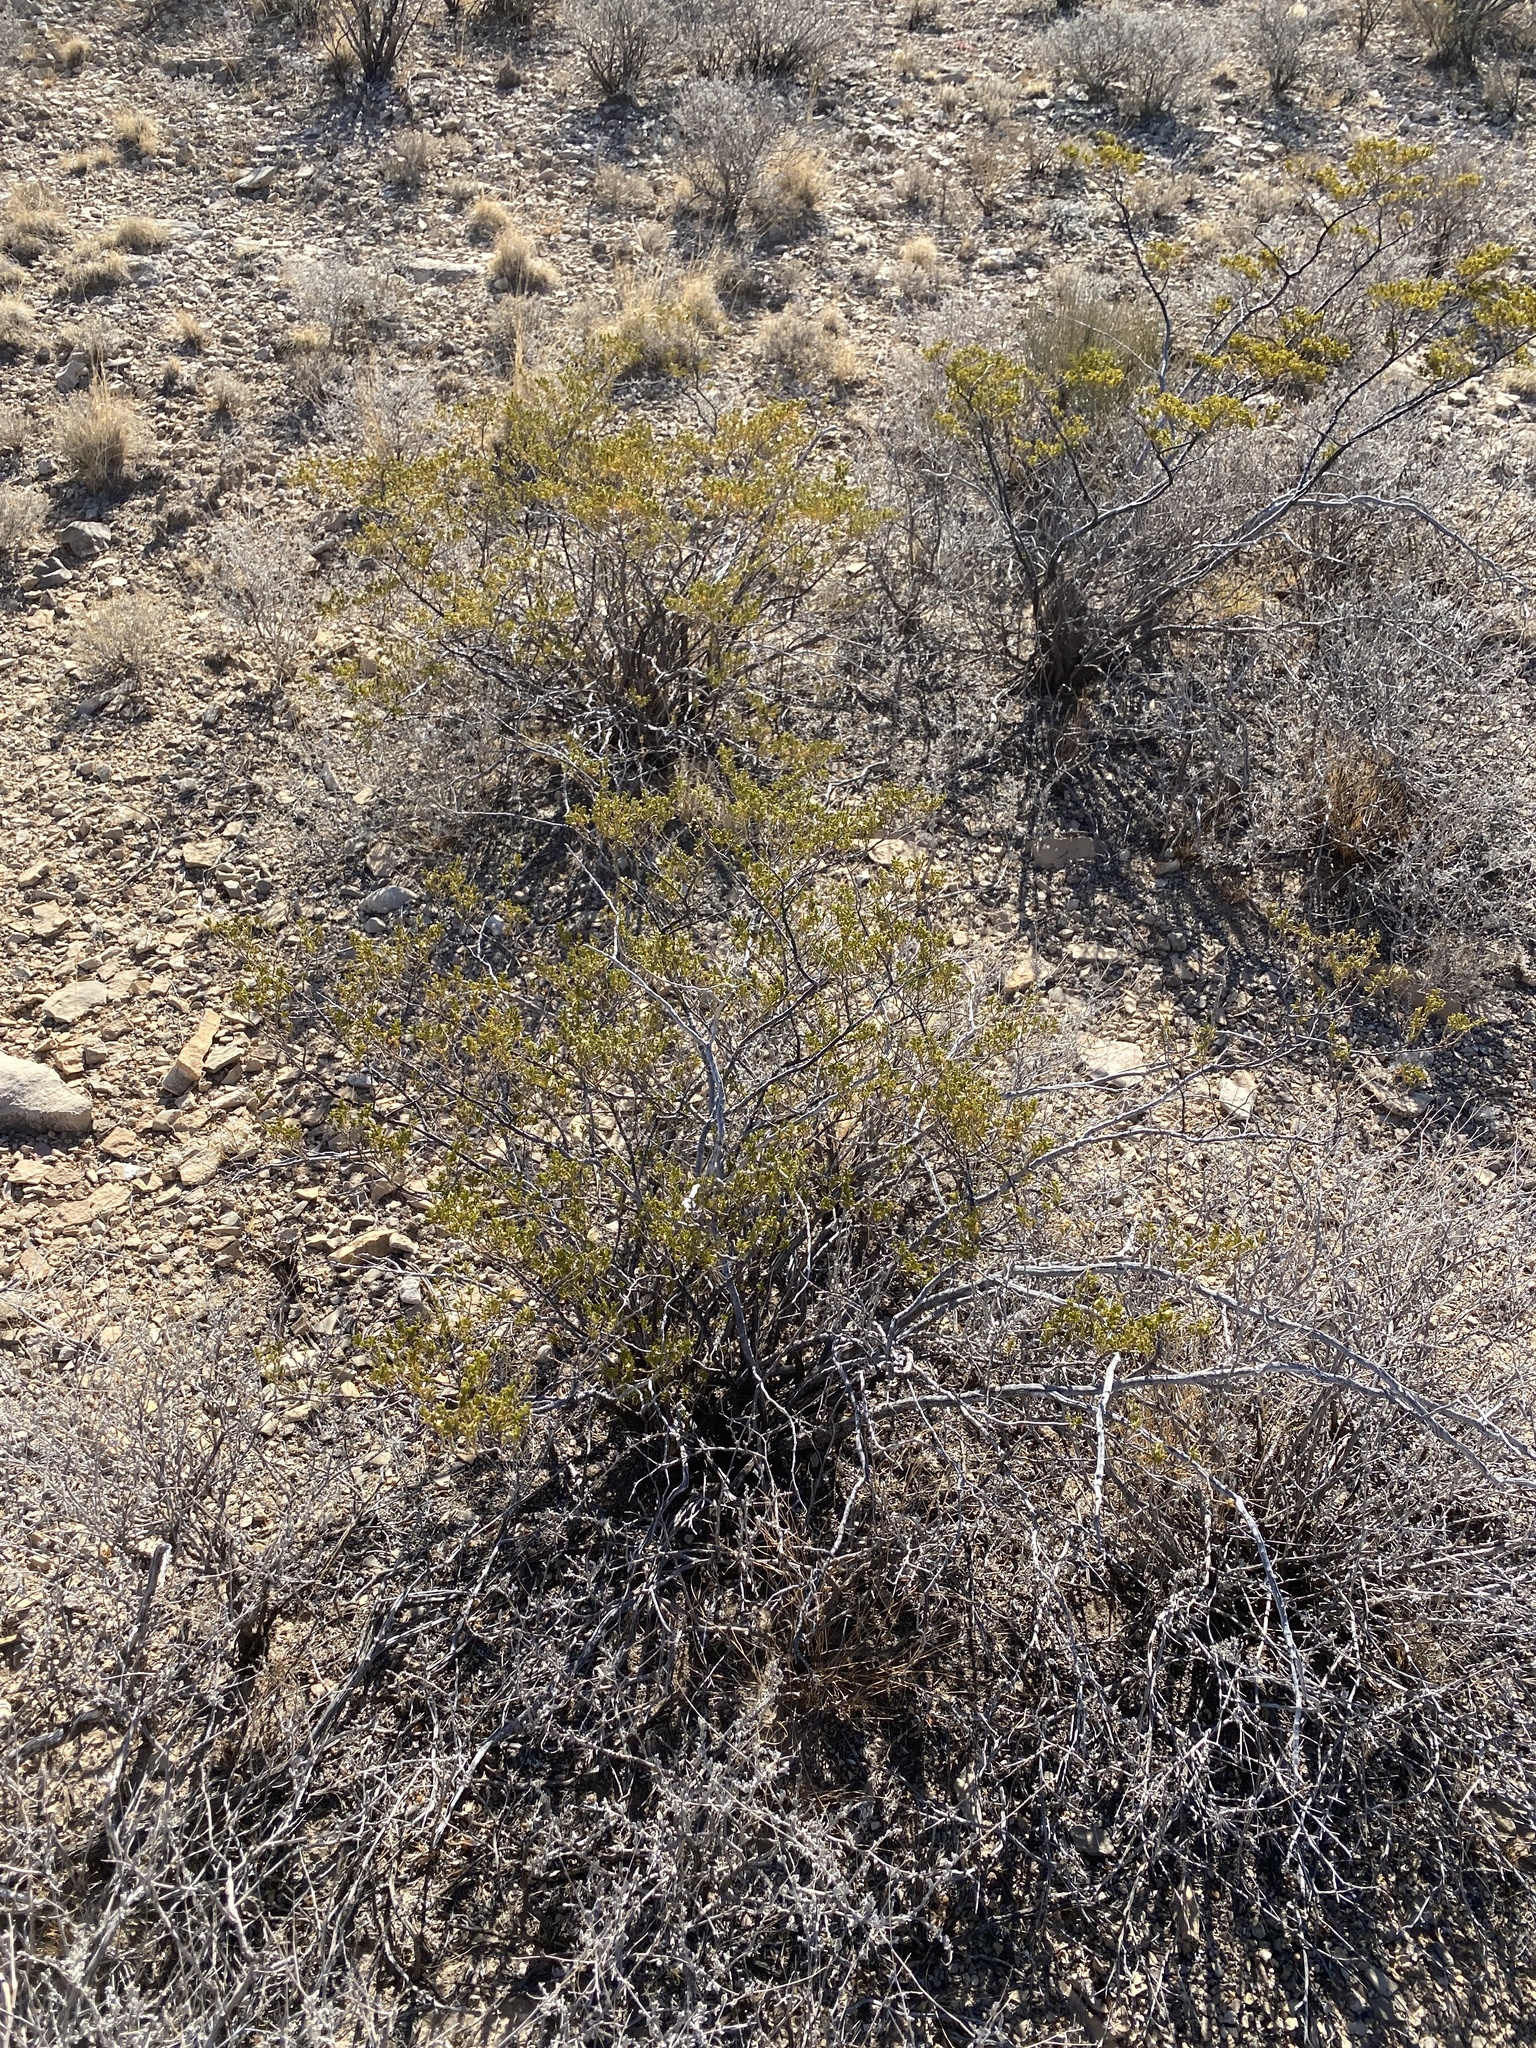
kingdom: Plantae
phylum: Tracheophyta
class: Magnoliopsida
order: Zygophyllales
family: Zygophyllaceae
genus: Larrea
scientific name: Larrea tridentata
